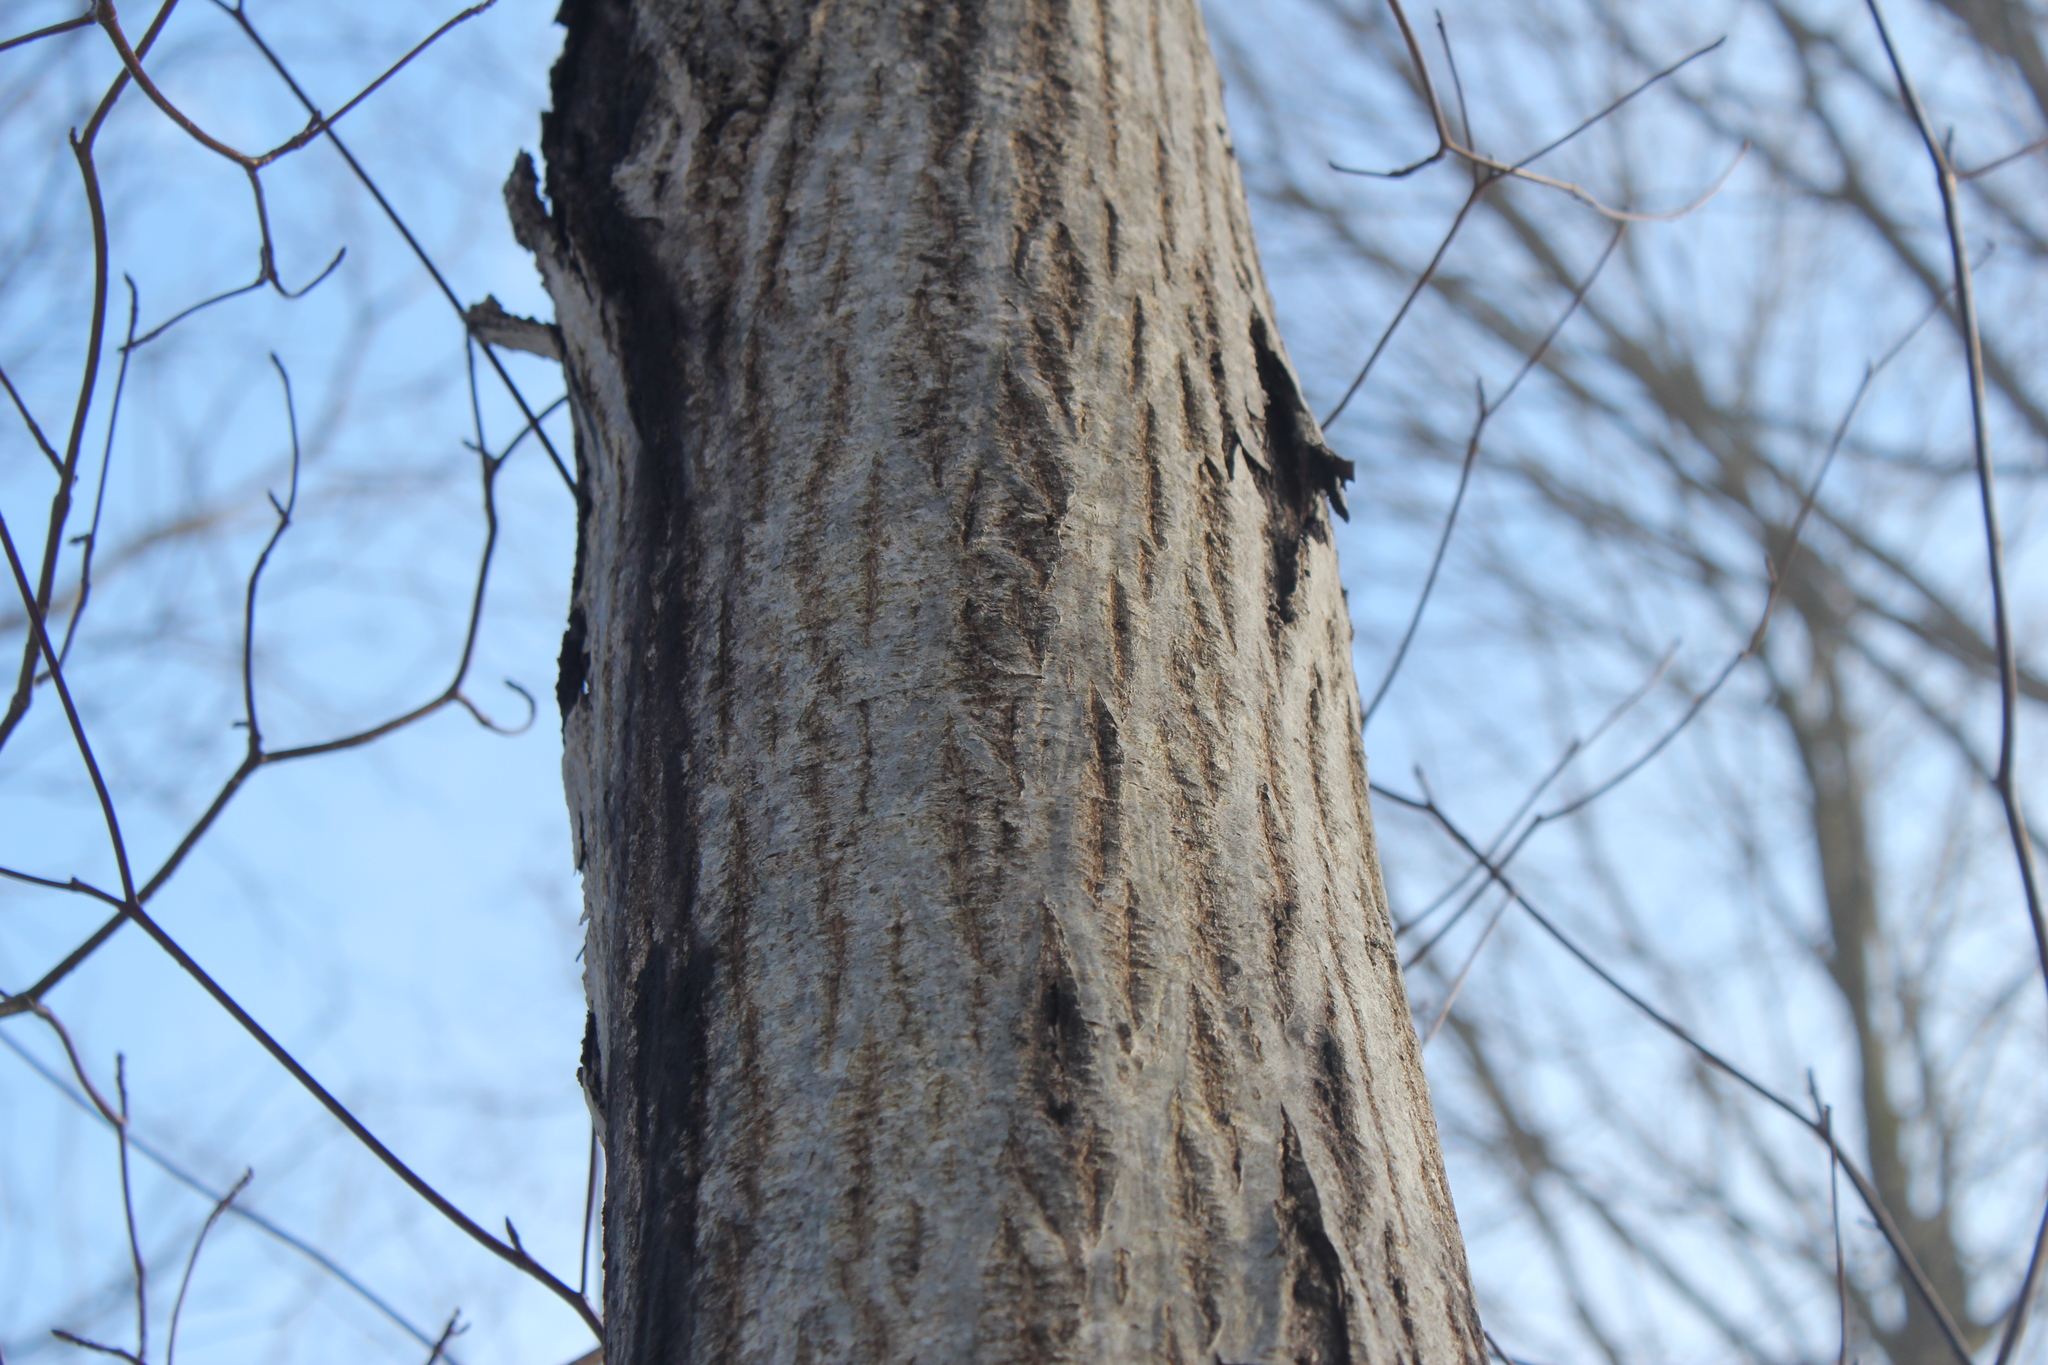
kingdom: Plantae
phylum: Tracheophyta
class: Magnoliopsida
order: Fagales
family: Juglandaceae
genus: Juglans
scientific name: Juglans cinerea
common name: Butternut
